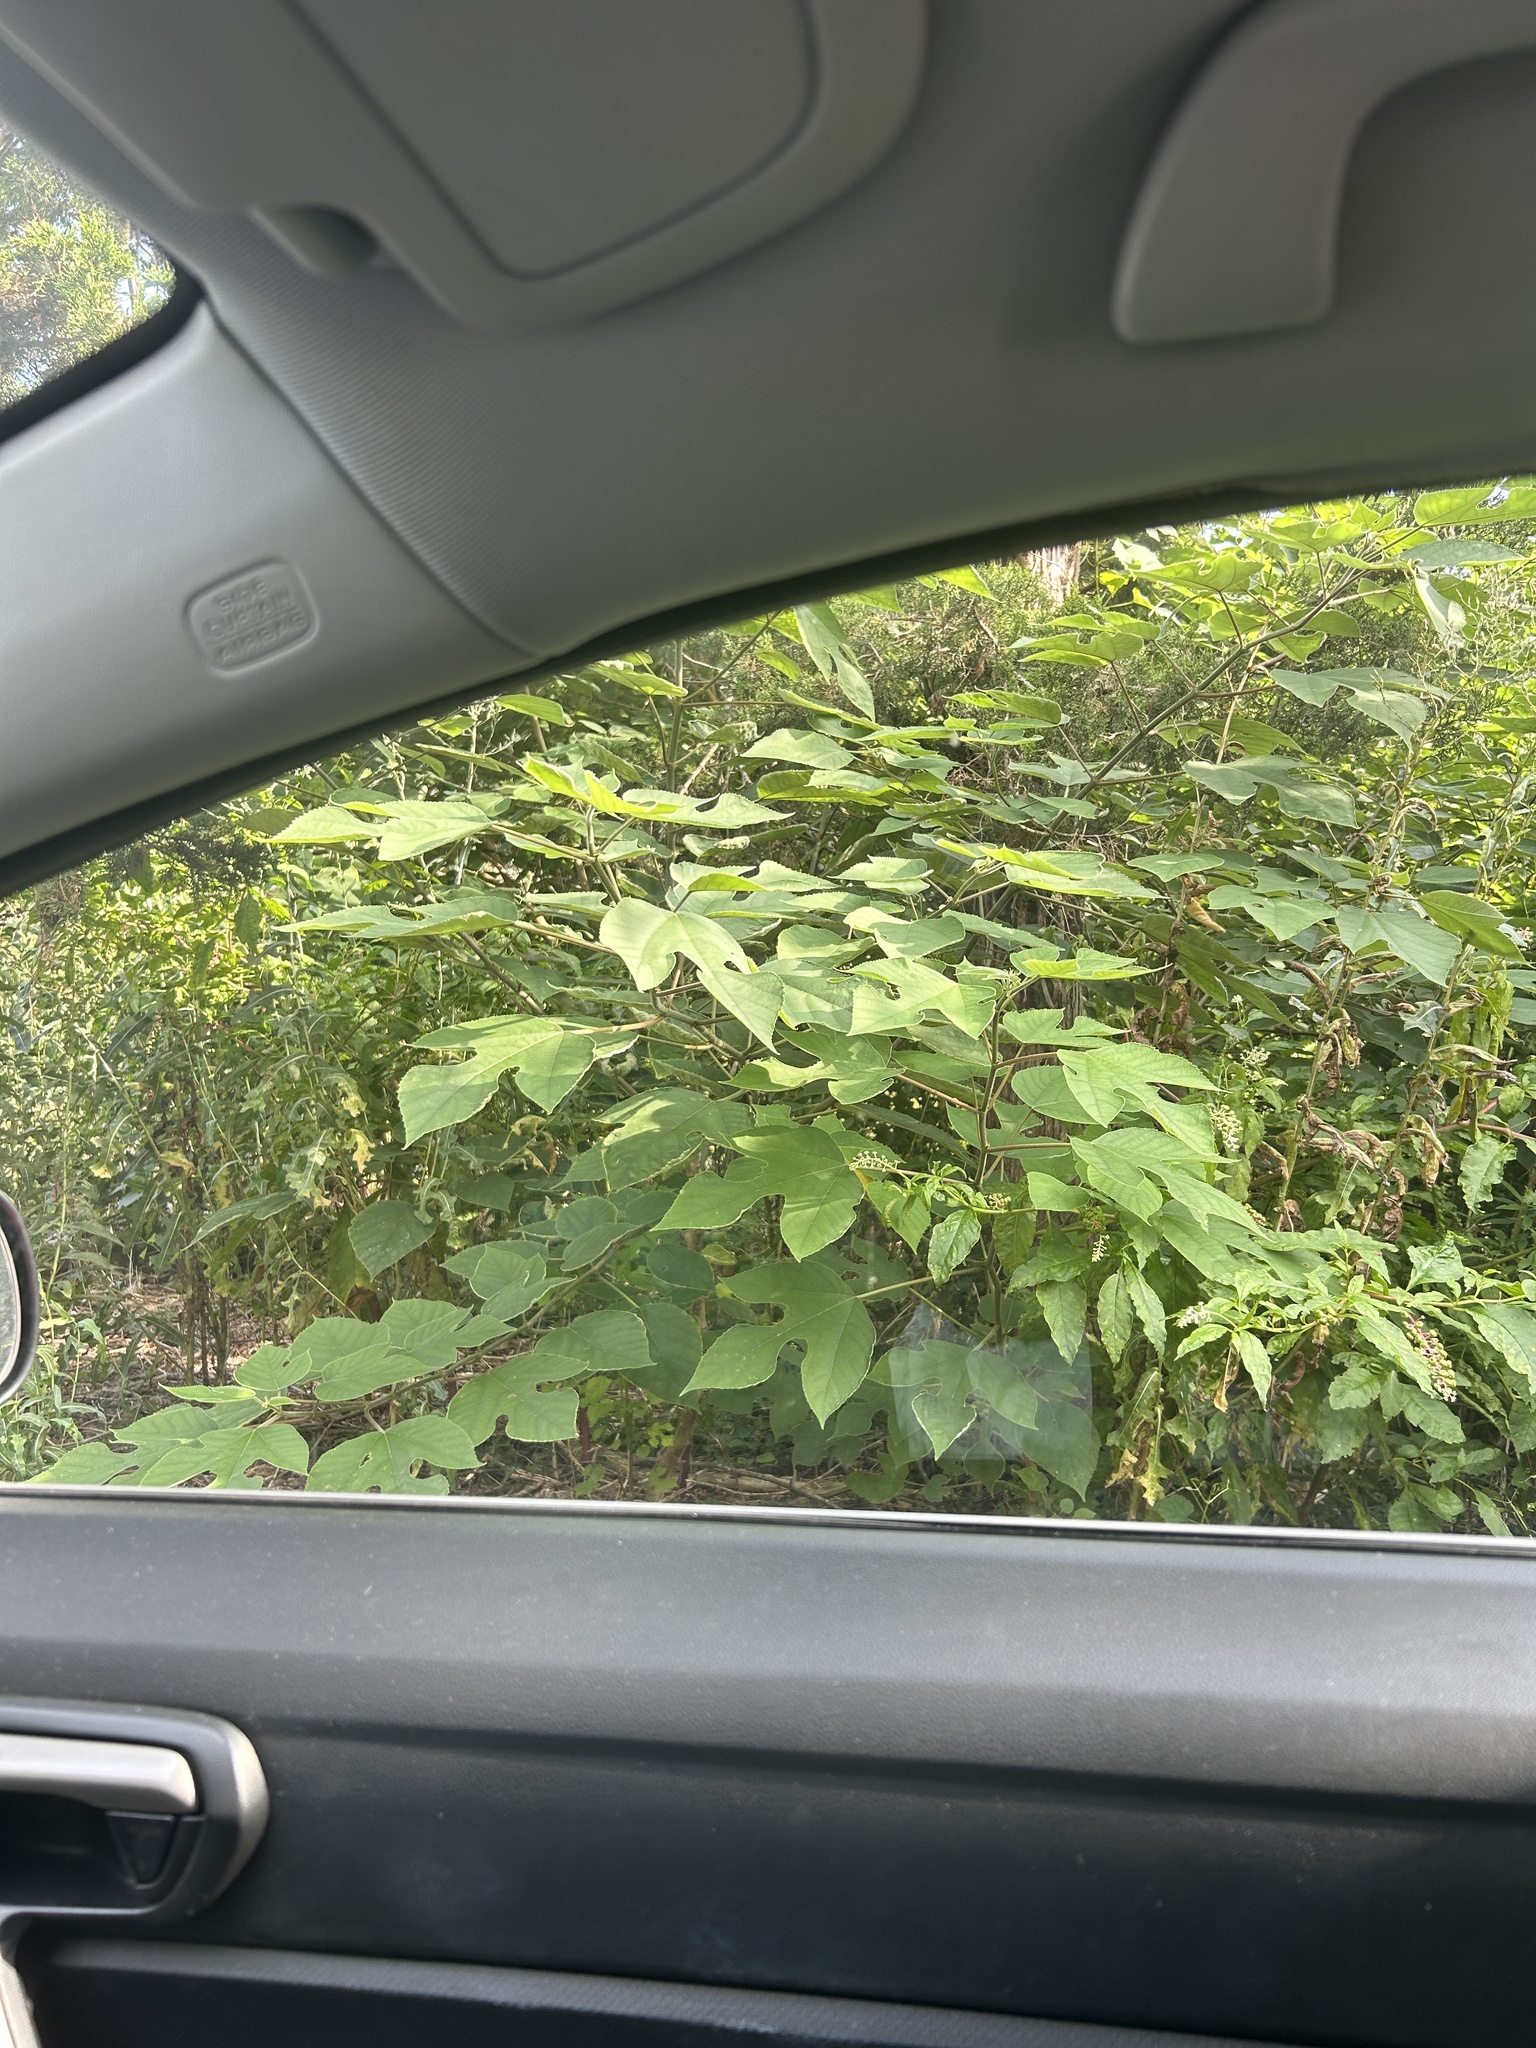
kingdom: Plantae
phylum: Tracheophyta
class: Magnoliopsida
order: Rosales
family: Moraceae
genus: Broussonetia
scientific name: Broussonetia papyrifera
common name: Paper mulberry
